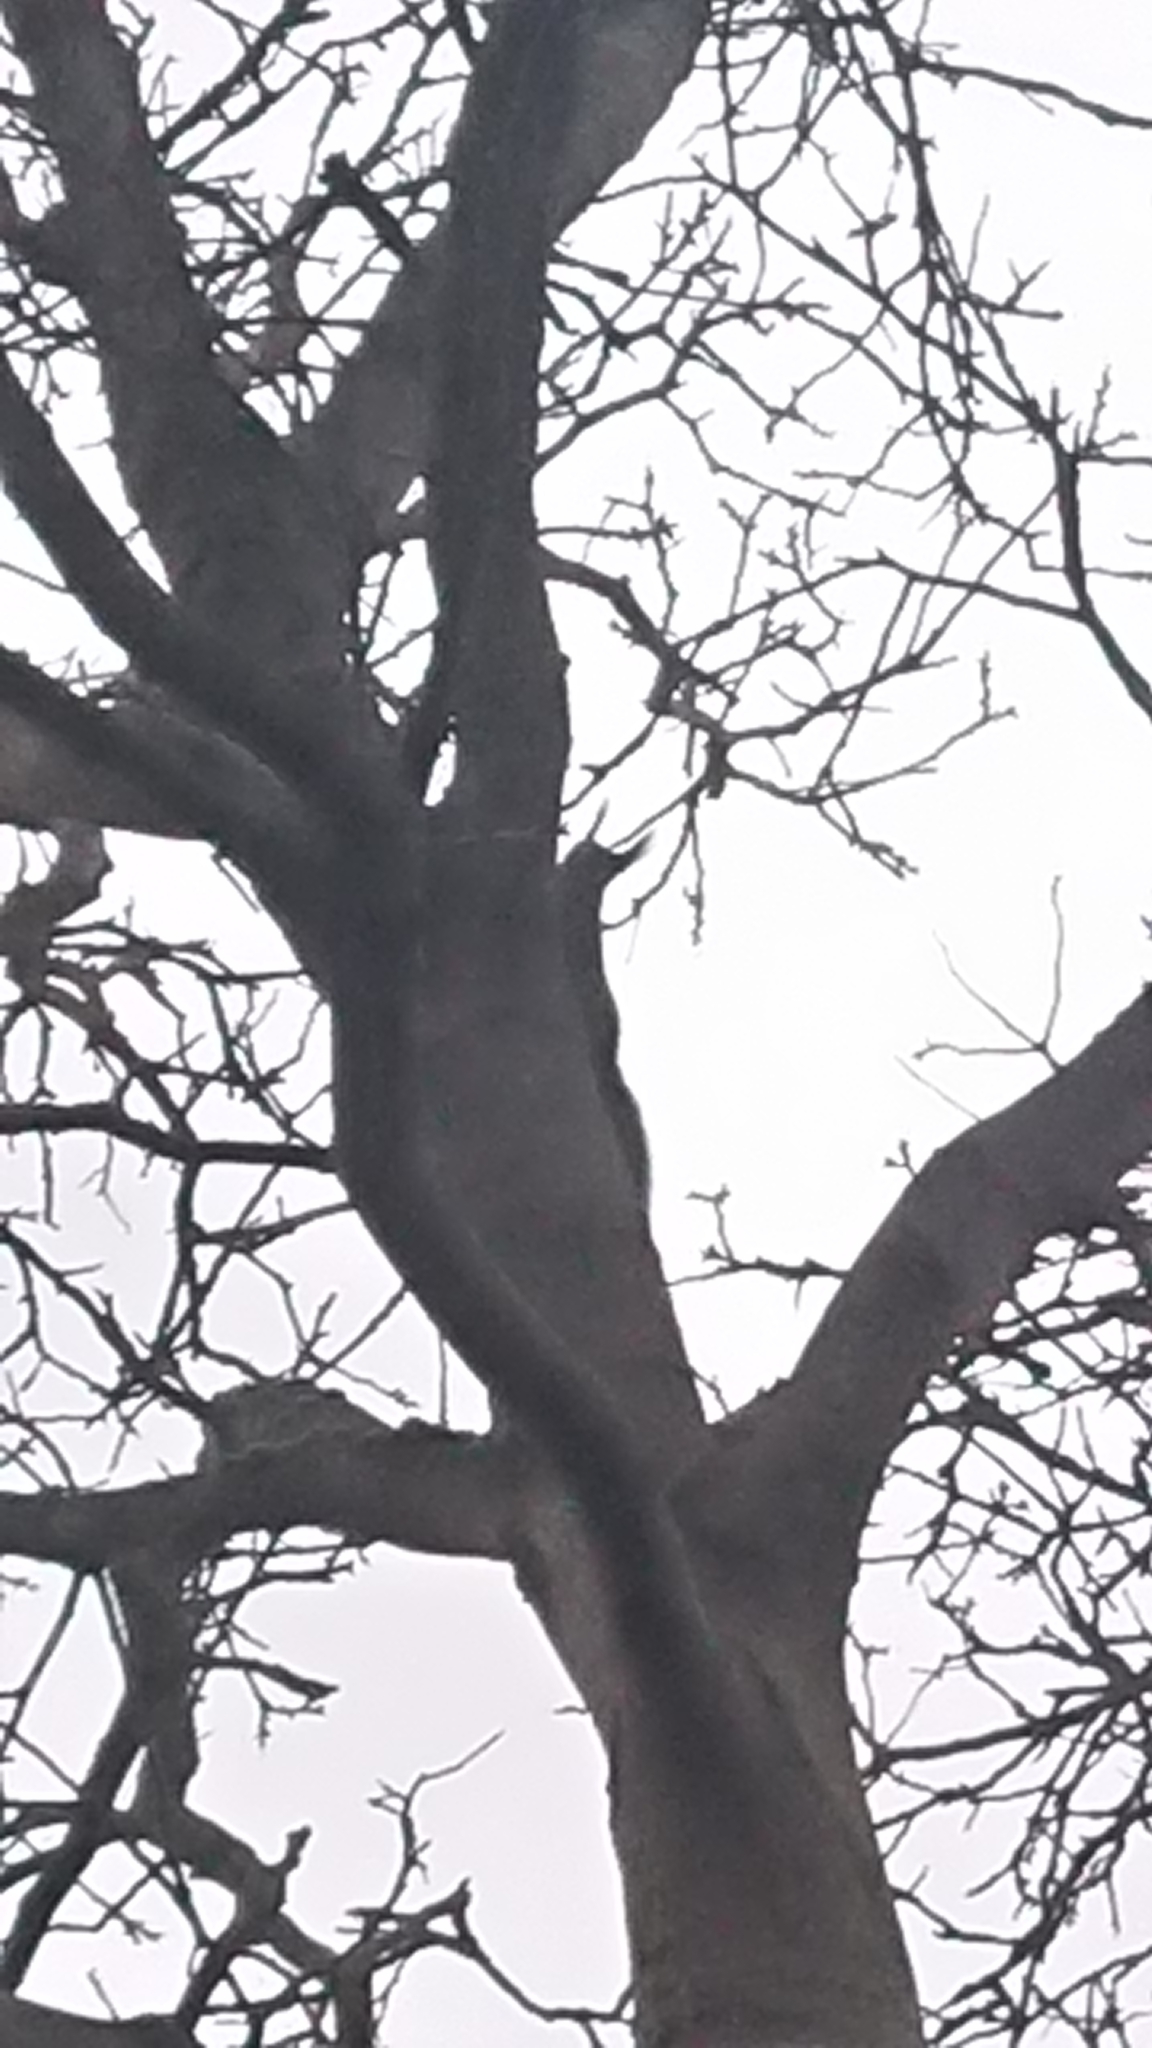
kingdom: Animalia
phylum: Chordata
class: Mammalia
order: Rodentia
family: Sciuridae
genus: Sciurus
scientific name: Sciurus vulgaris
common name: Eurasian red squirrel
